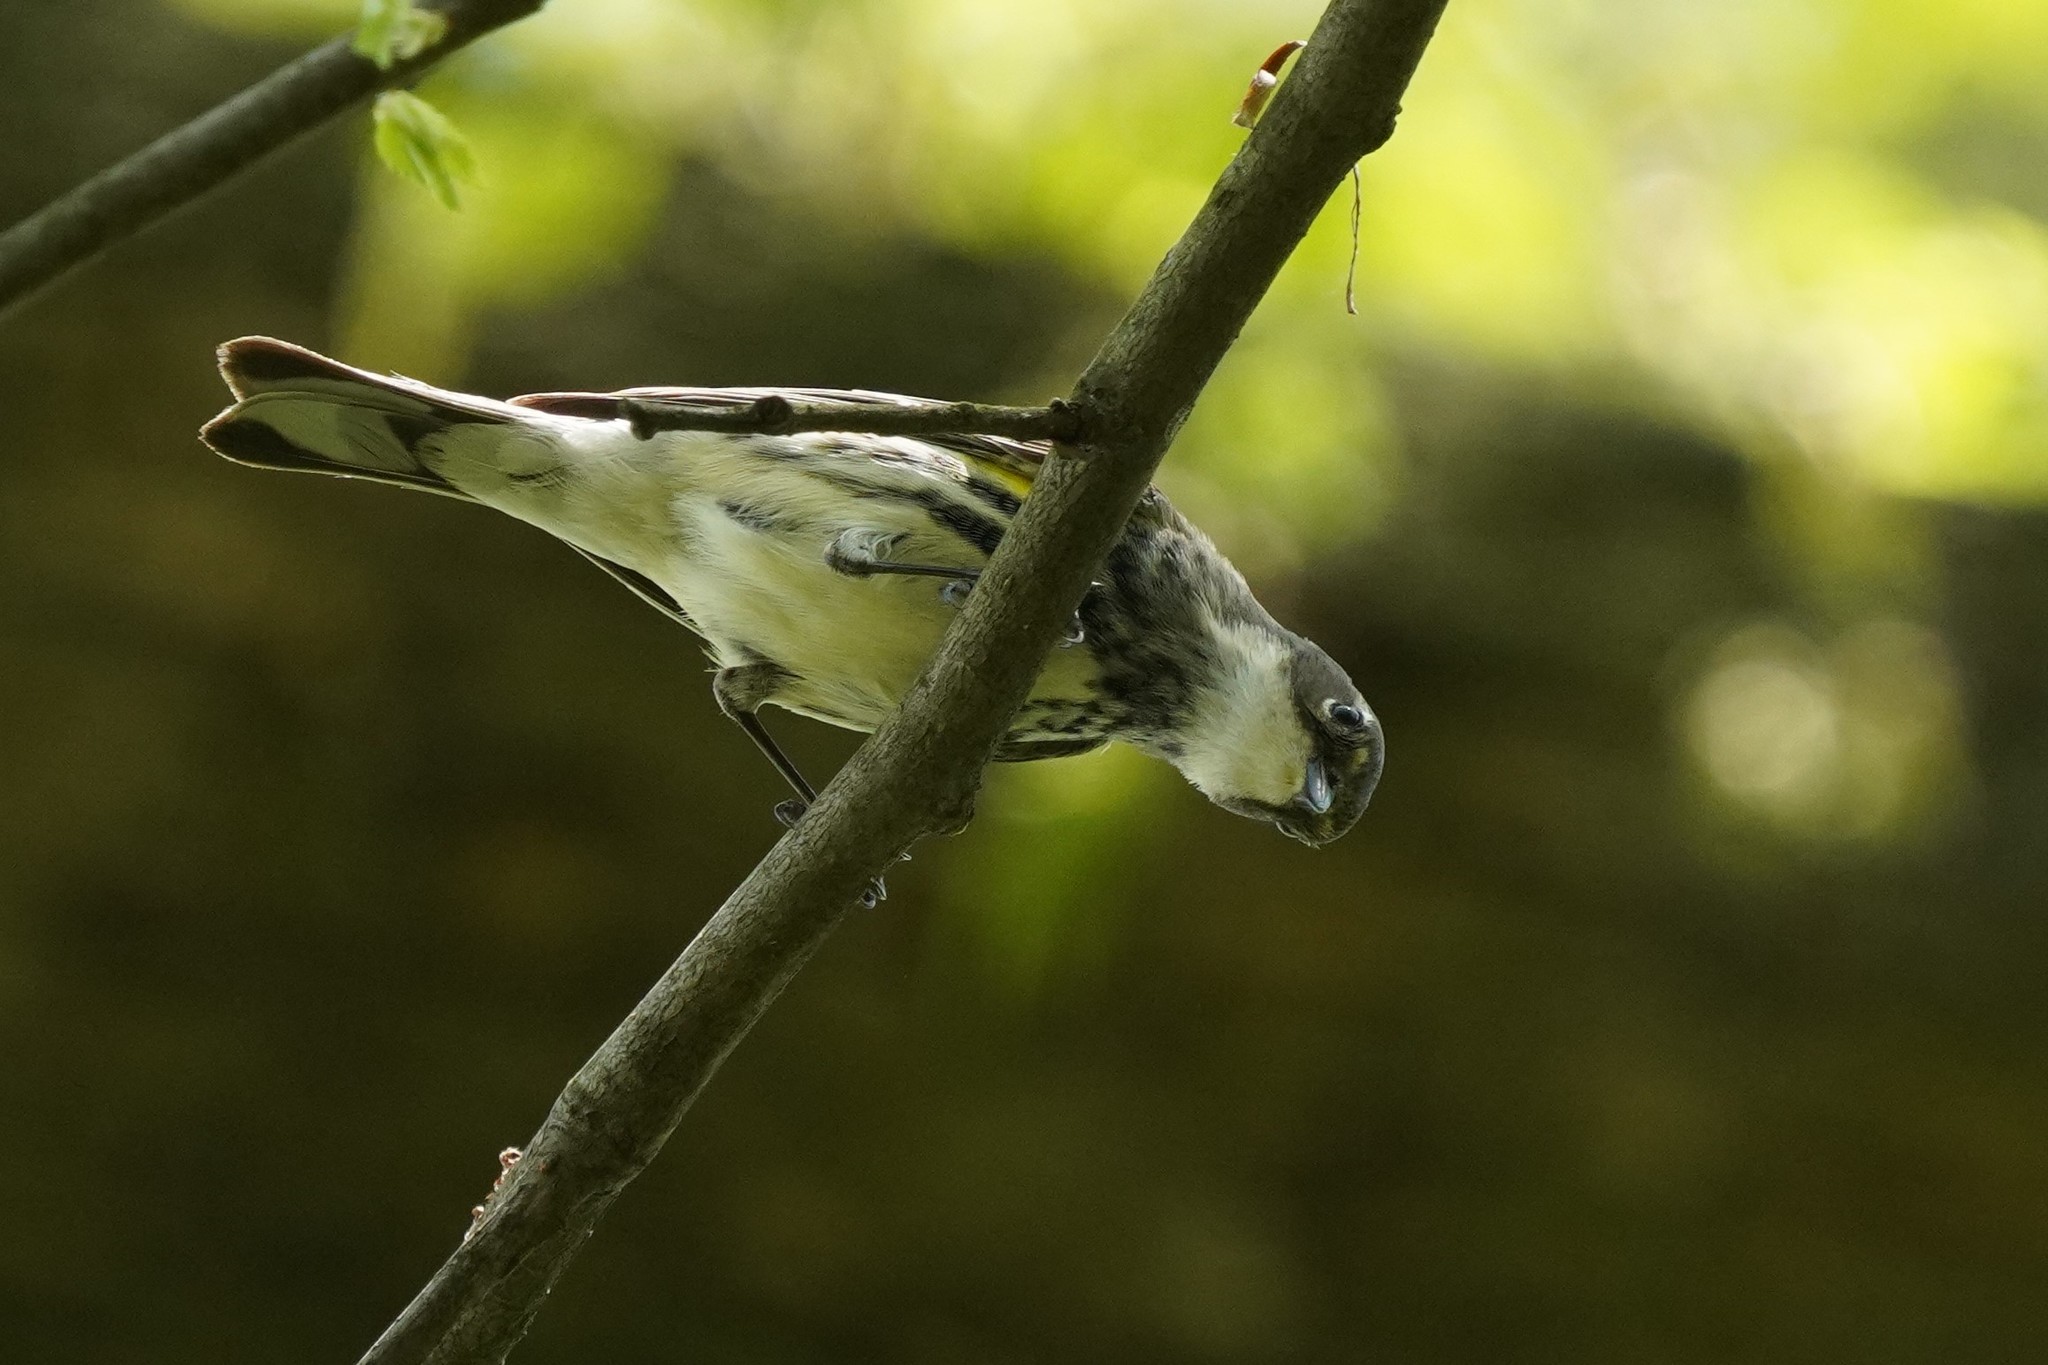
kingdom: Animalia
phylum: Chordata
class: Aves
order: Passeriformes
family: Parulidae
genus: Setophaga
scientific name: Setophaga coronata
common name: Myrtle warbler
